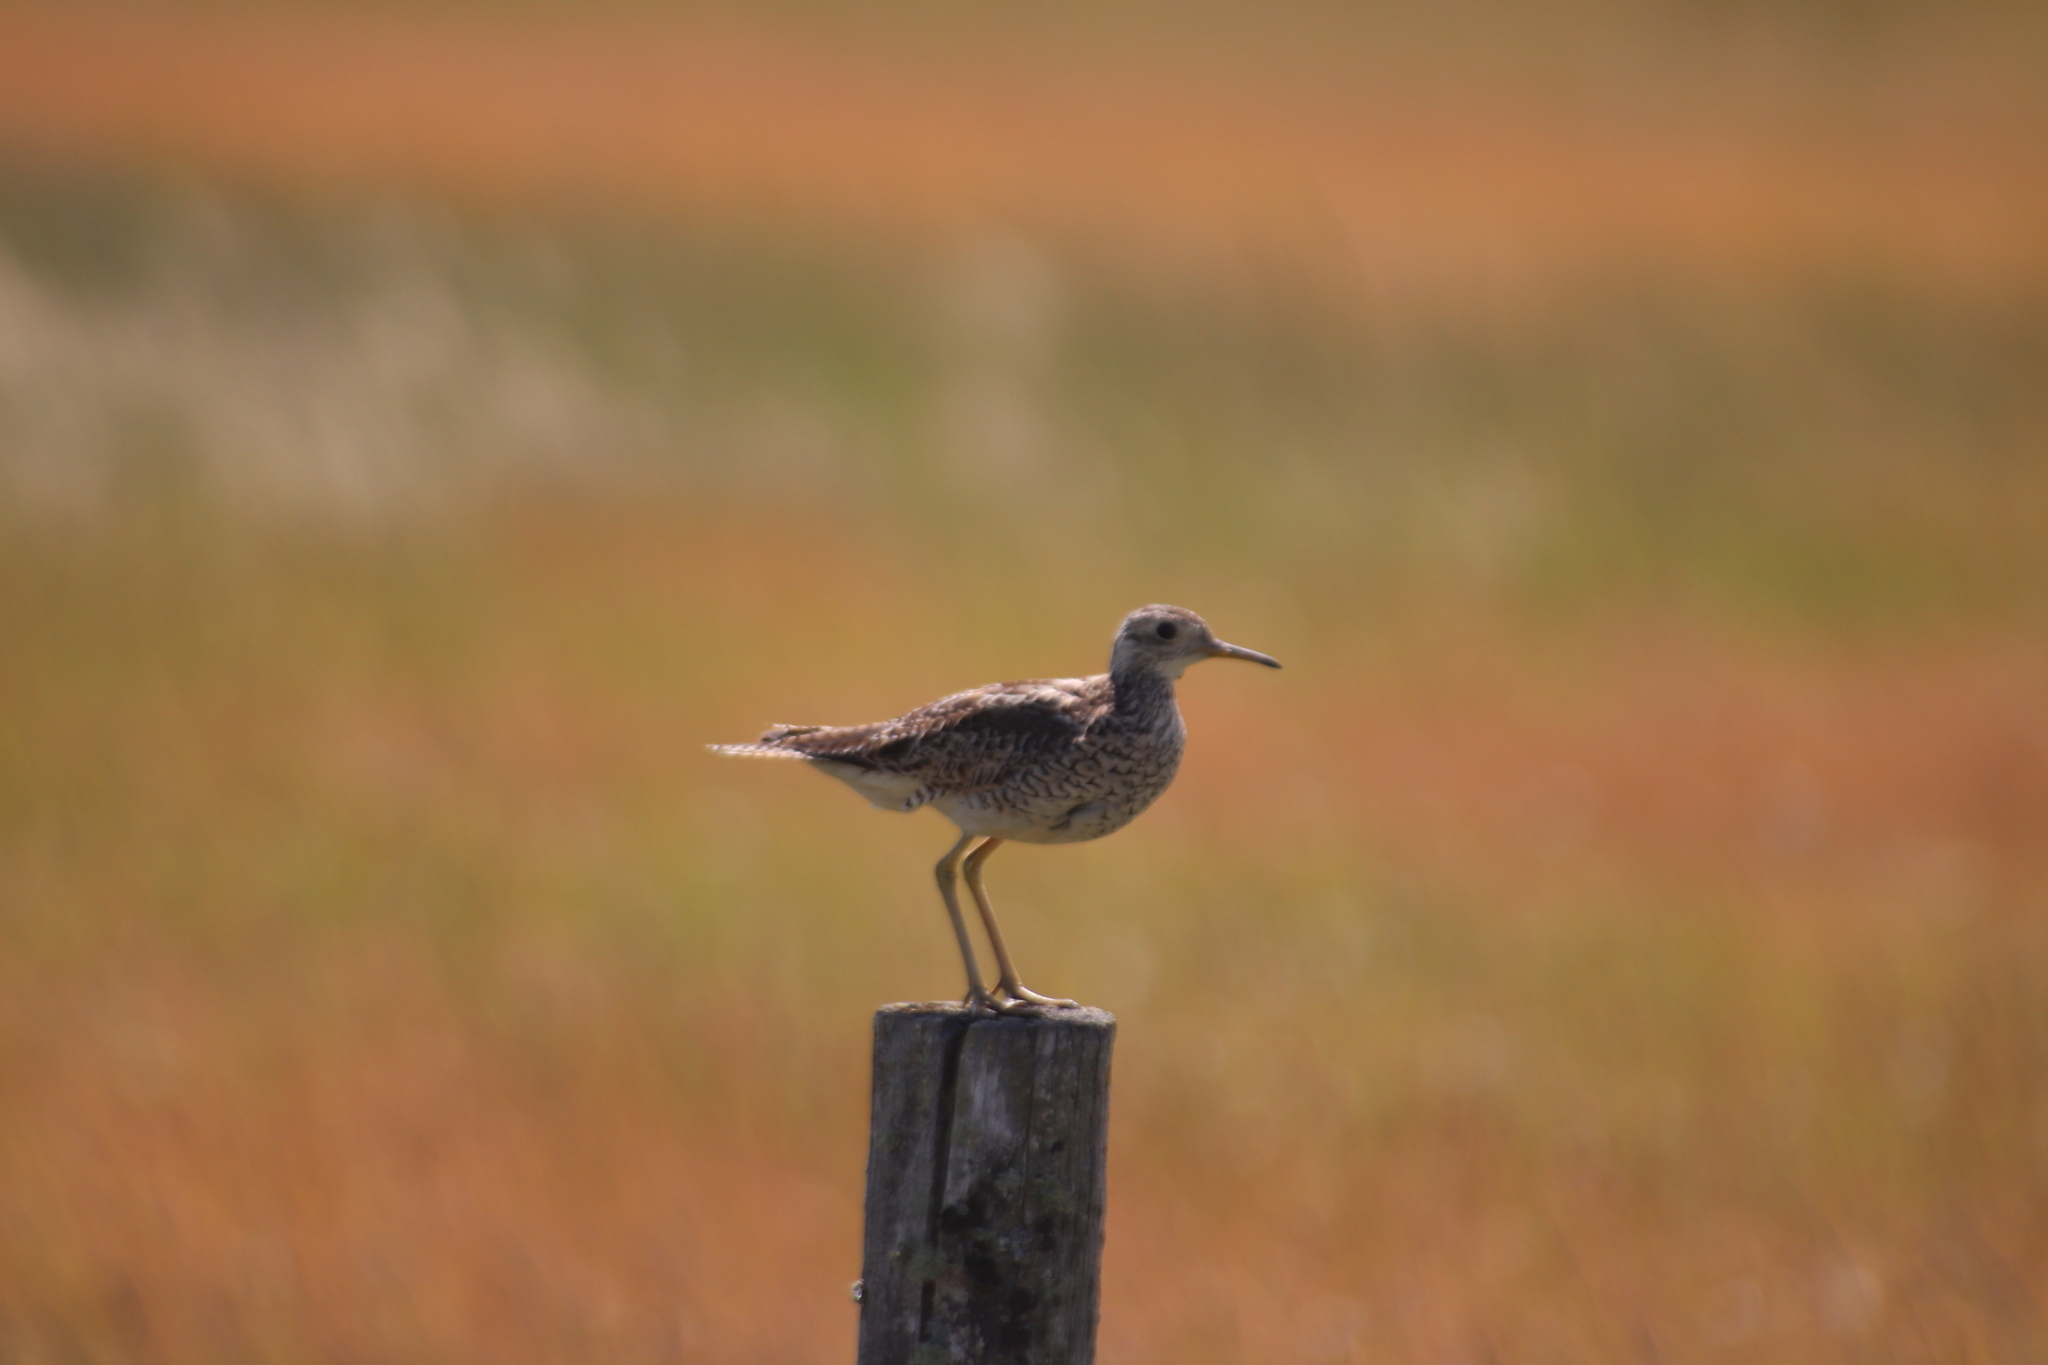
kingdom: Animalia
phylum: Chordata
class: Aves
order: Charadriiformes
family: Scolopacidae
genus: Bartramia
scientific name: Bartramia longicauda
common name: Upland sandpiper
